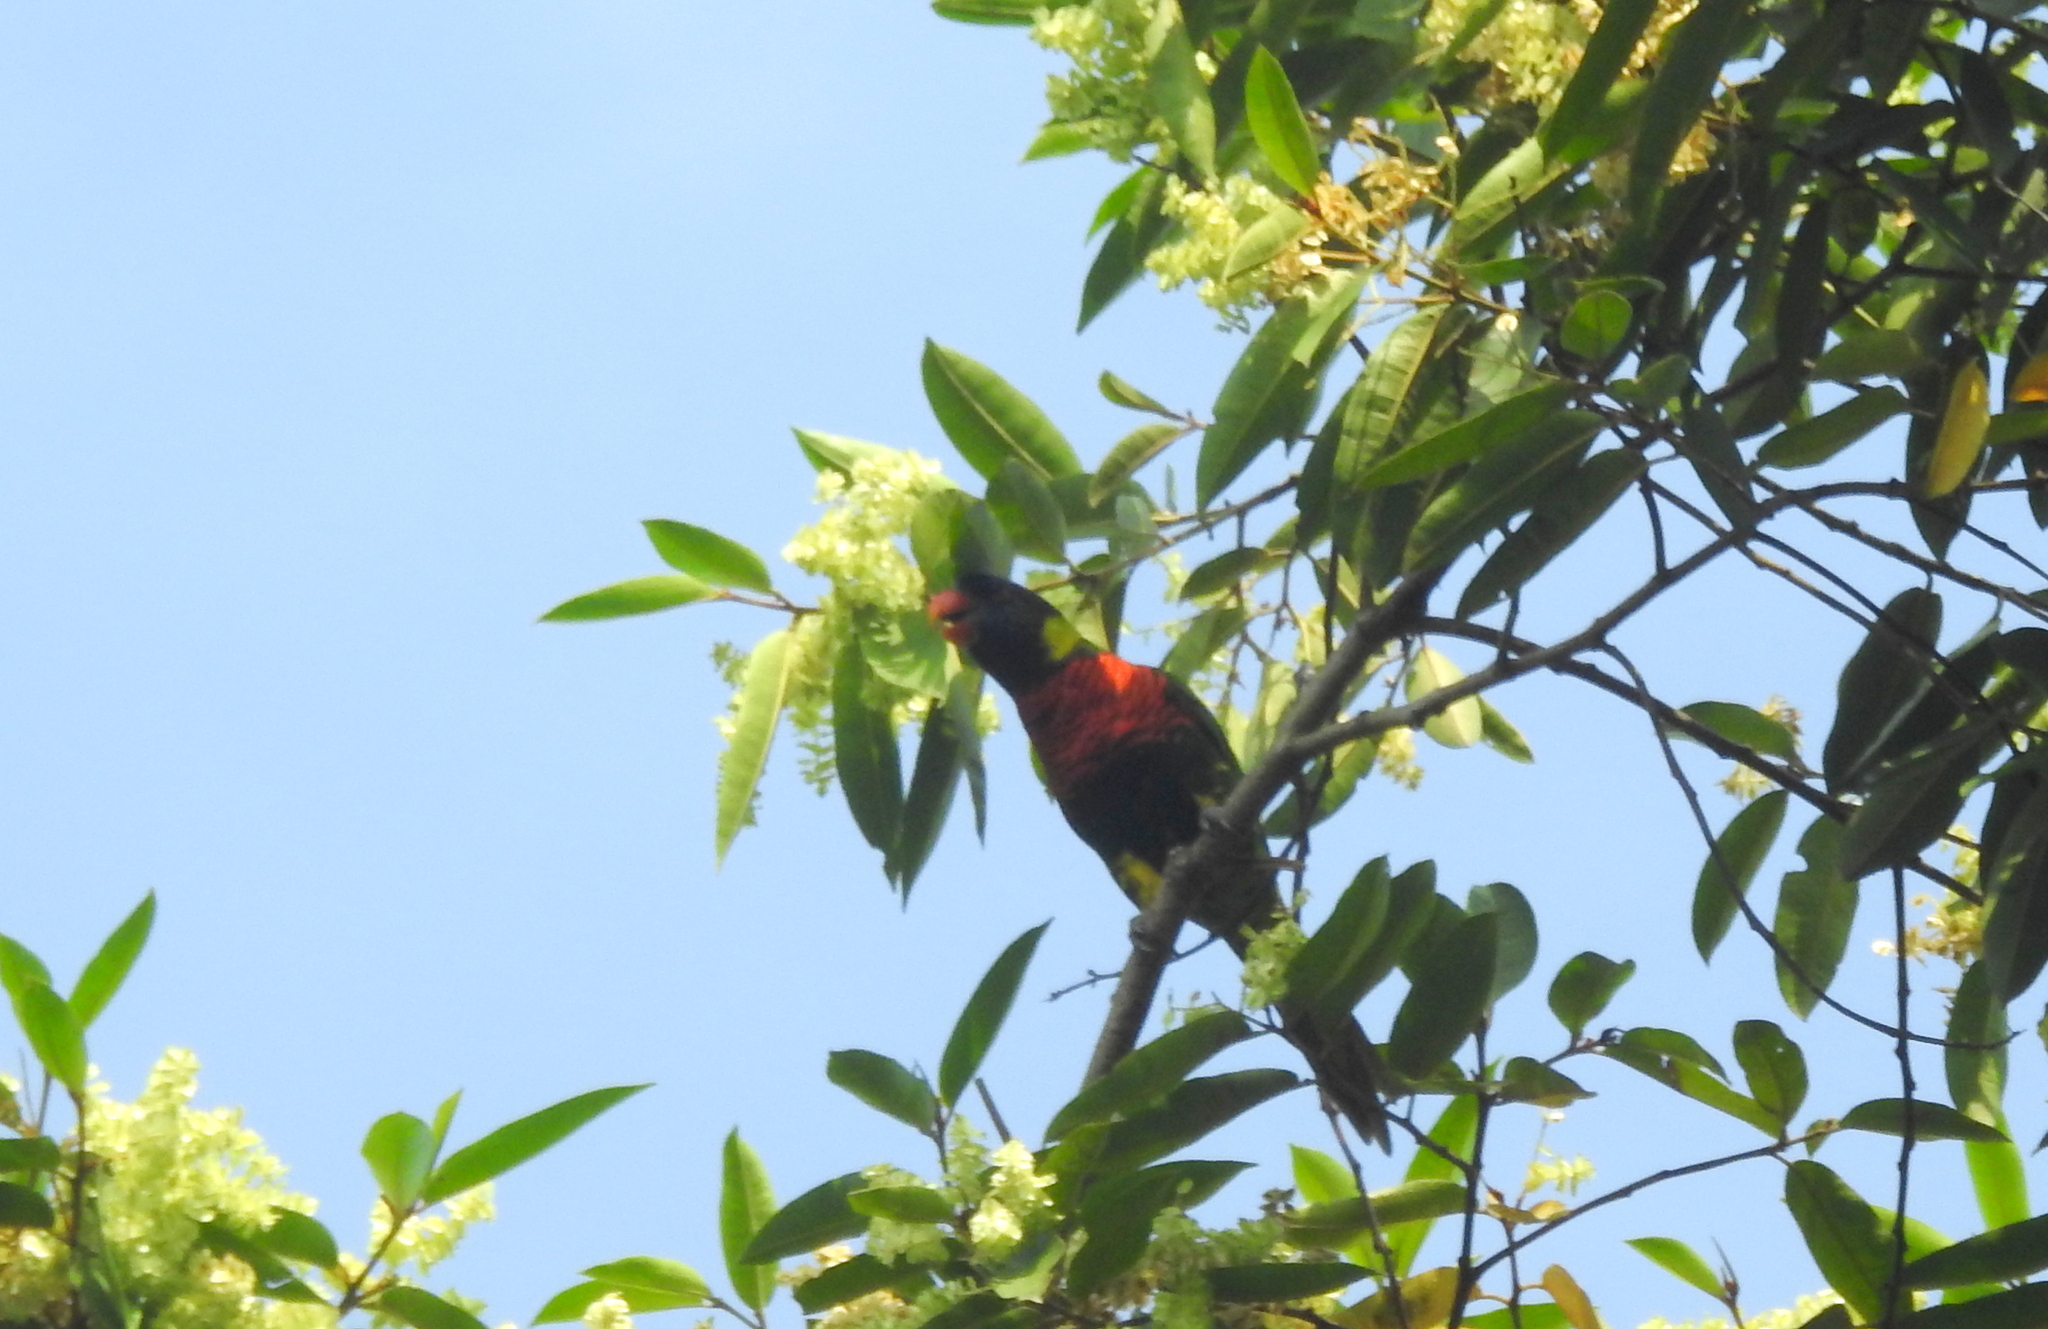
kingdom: Animalia
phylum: Chordata
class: Aves
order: Psittaciformes
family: Psittacidae
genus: Trichoglossus
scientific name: Trichoglossus haematodus
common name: Coconut lorikeet
